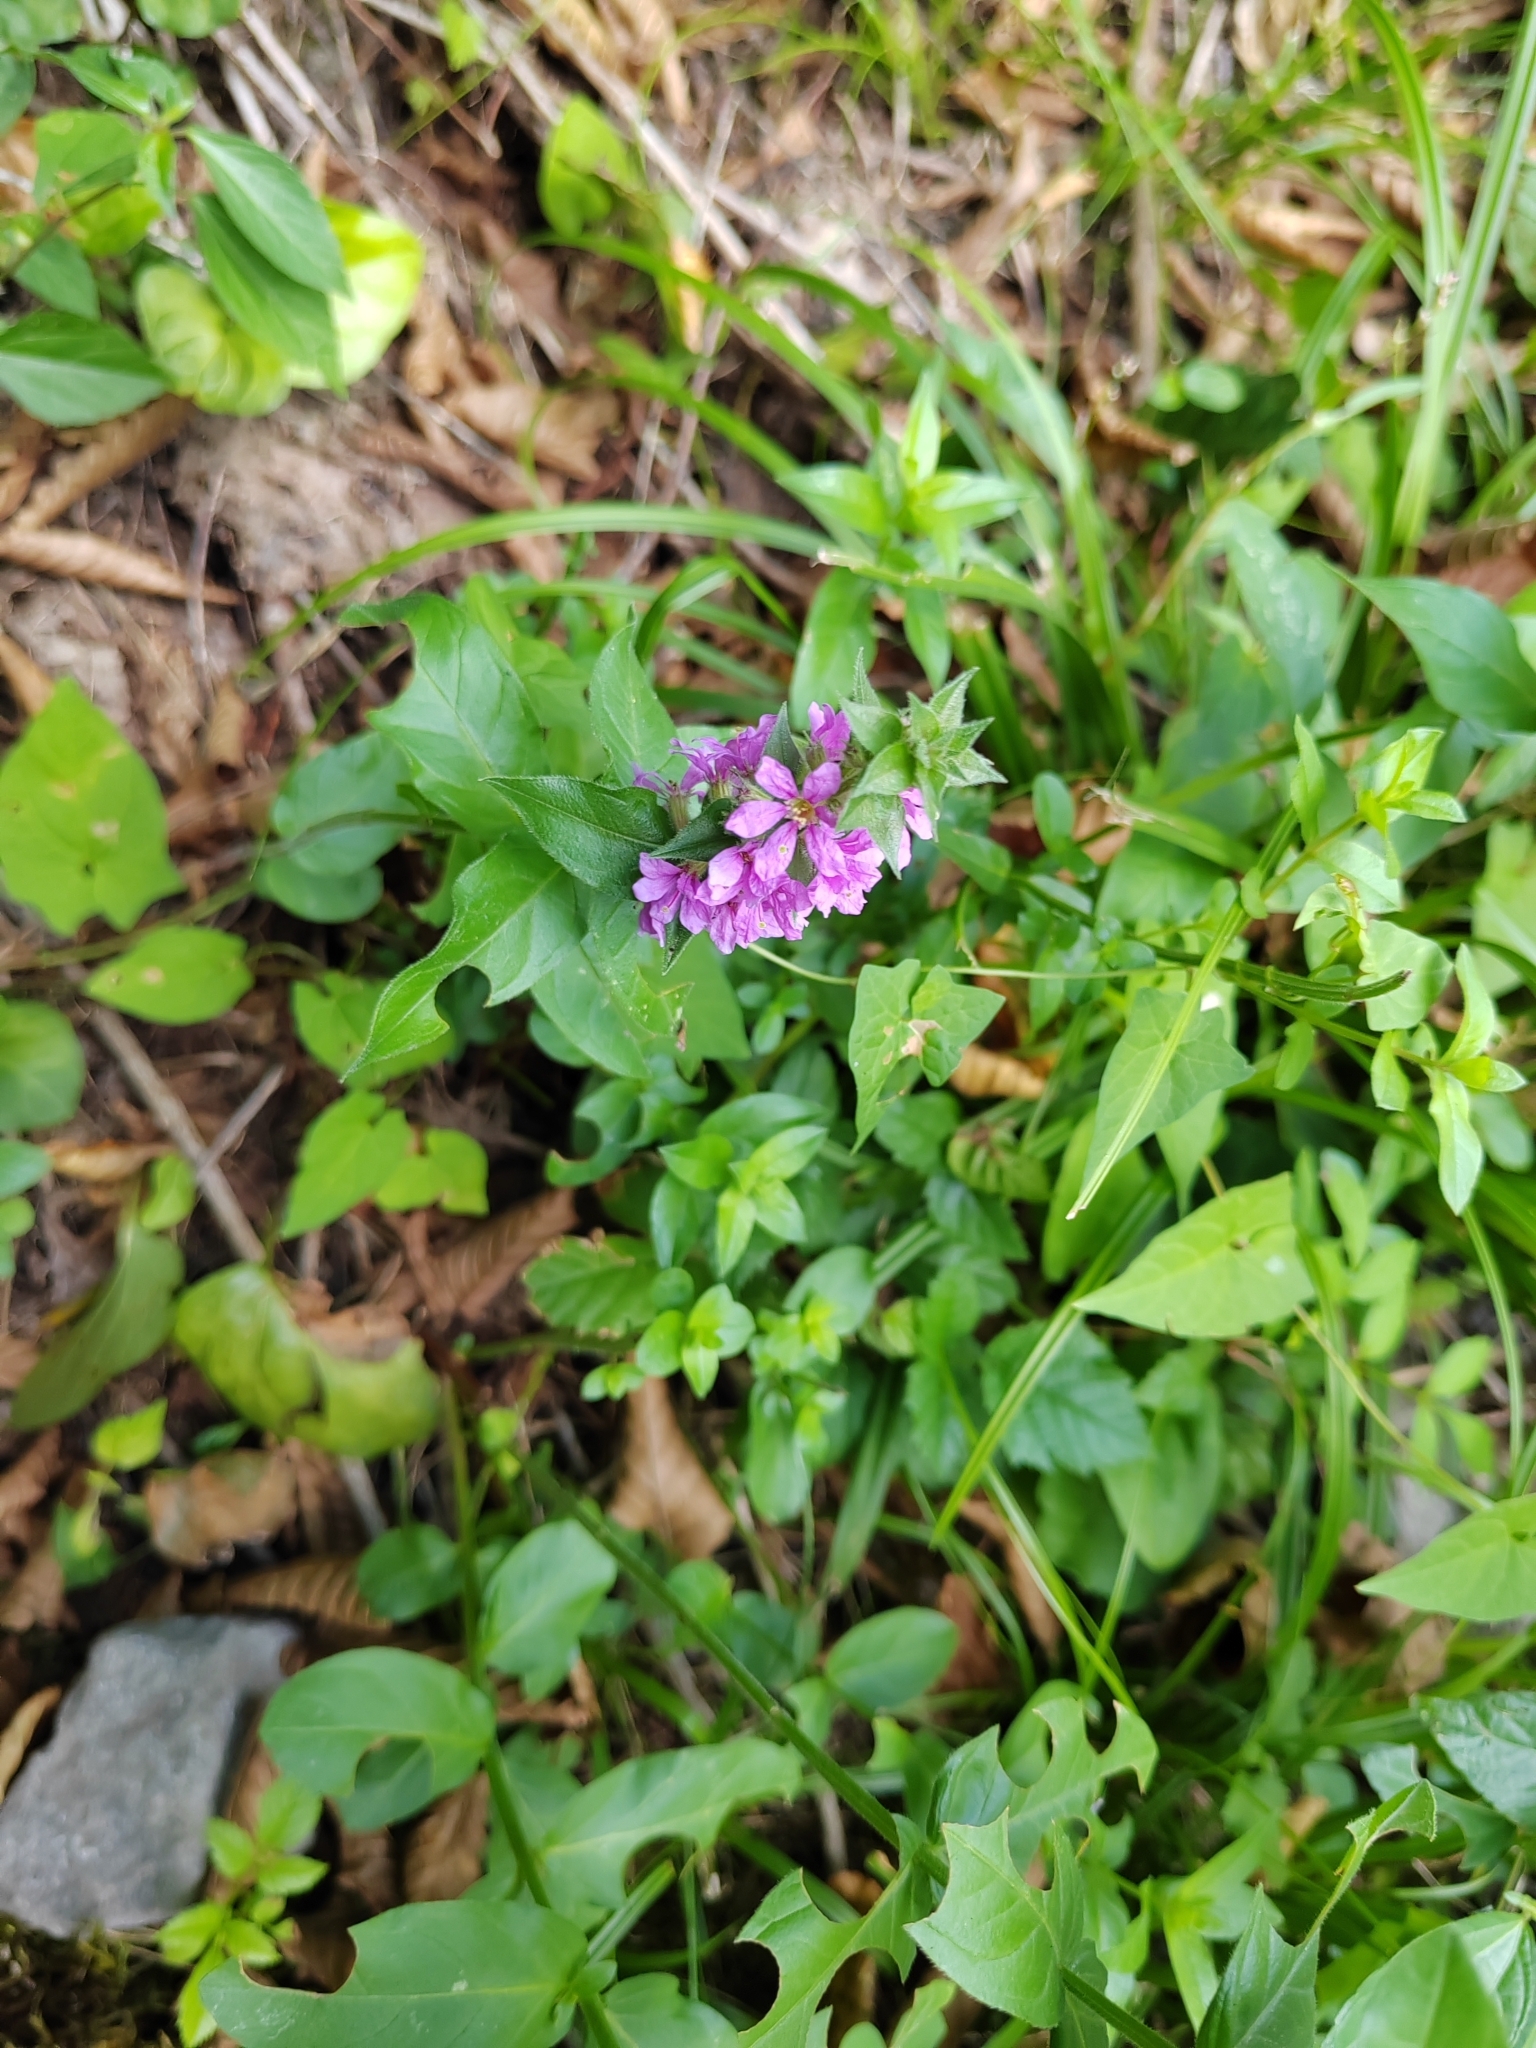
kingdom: Plantae
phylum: Tracheophyta
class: Magnoliopsida
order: Myrtales
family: Lythraceae
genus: Lythrum
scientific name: Lythrum salicaria
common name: Purple loosestrife
